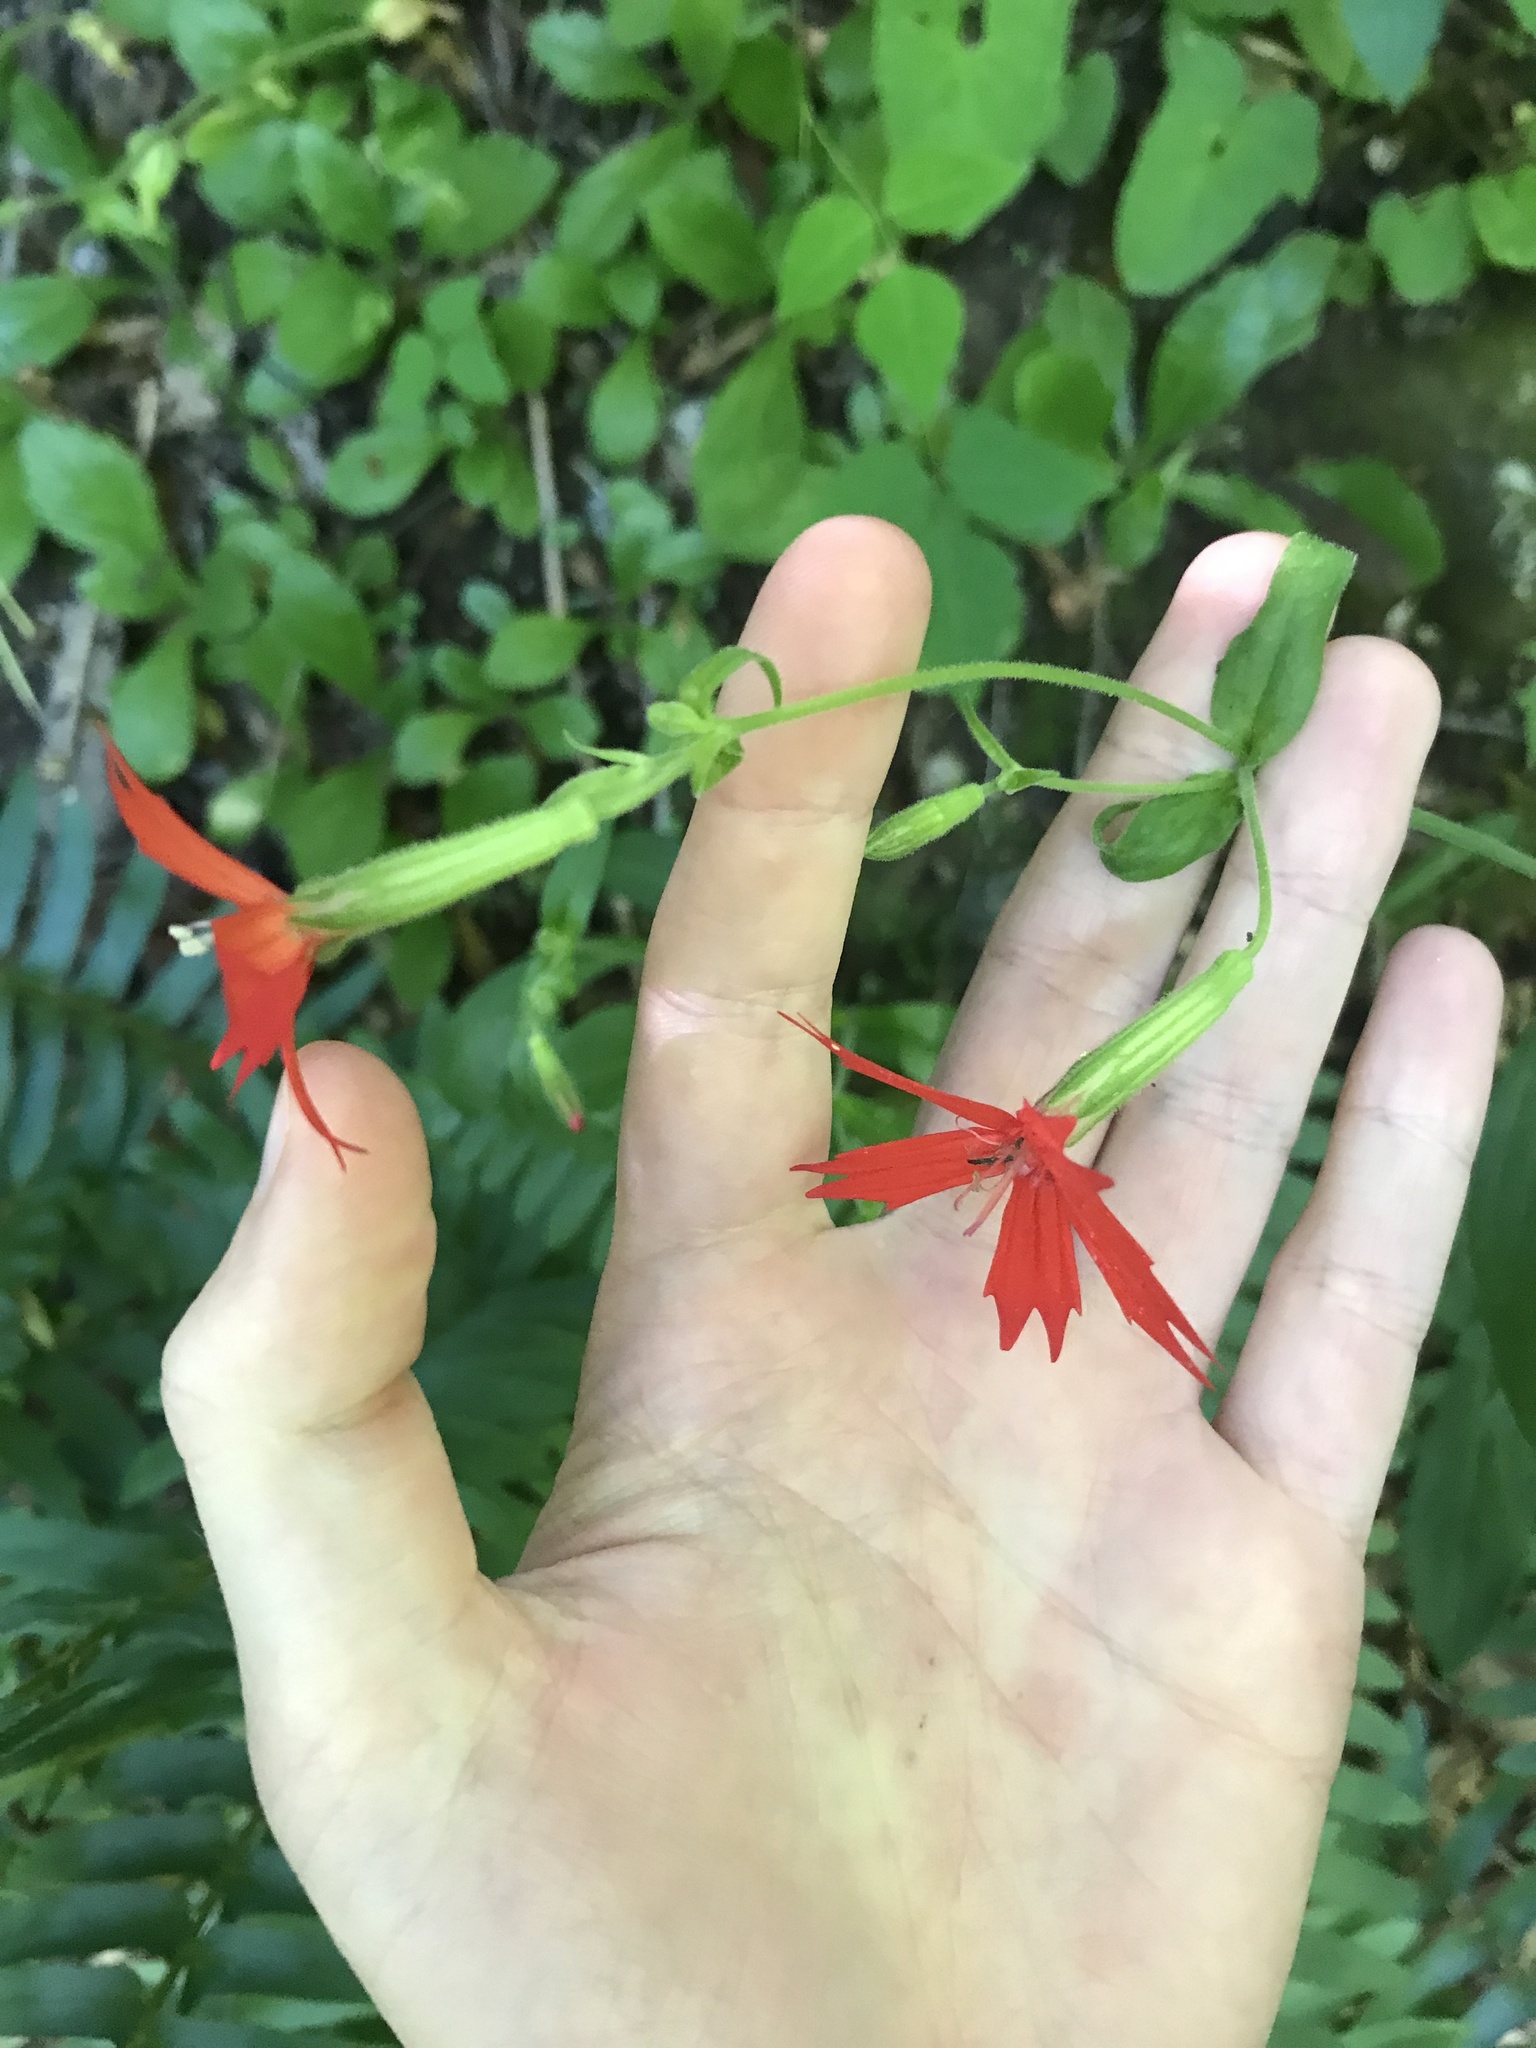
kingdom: Plantae
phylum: Tracheophyta
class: Magnoliopsida
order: Caryophyllales
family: Caryophyllaceae
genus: Silene
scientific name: Silene virginica
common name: Fire-pink
